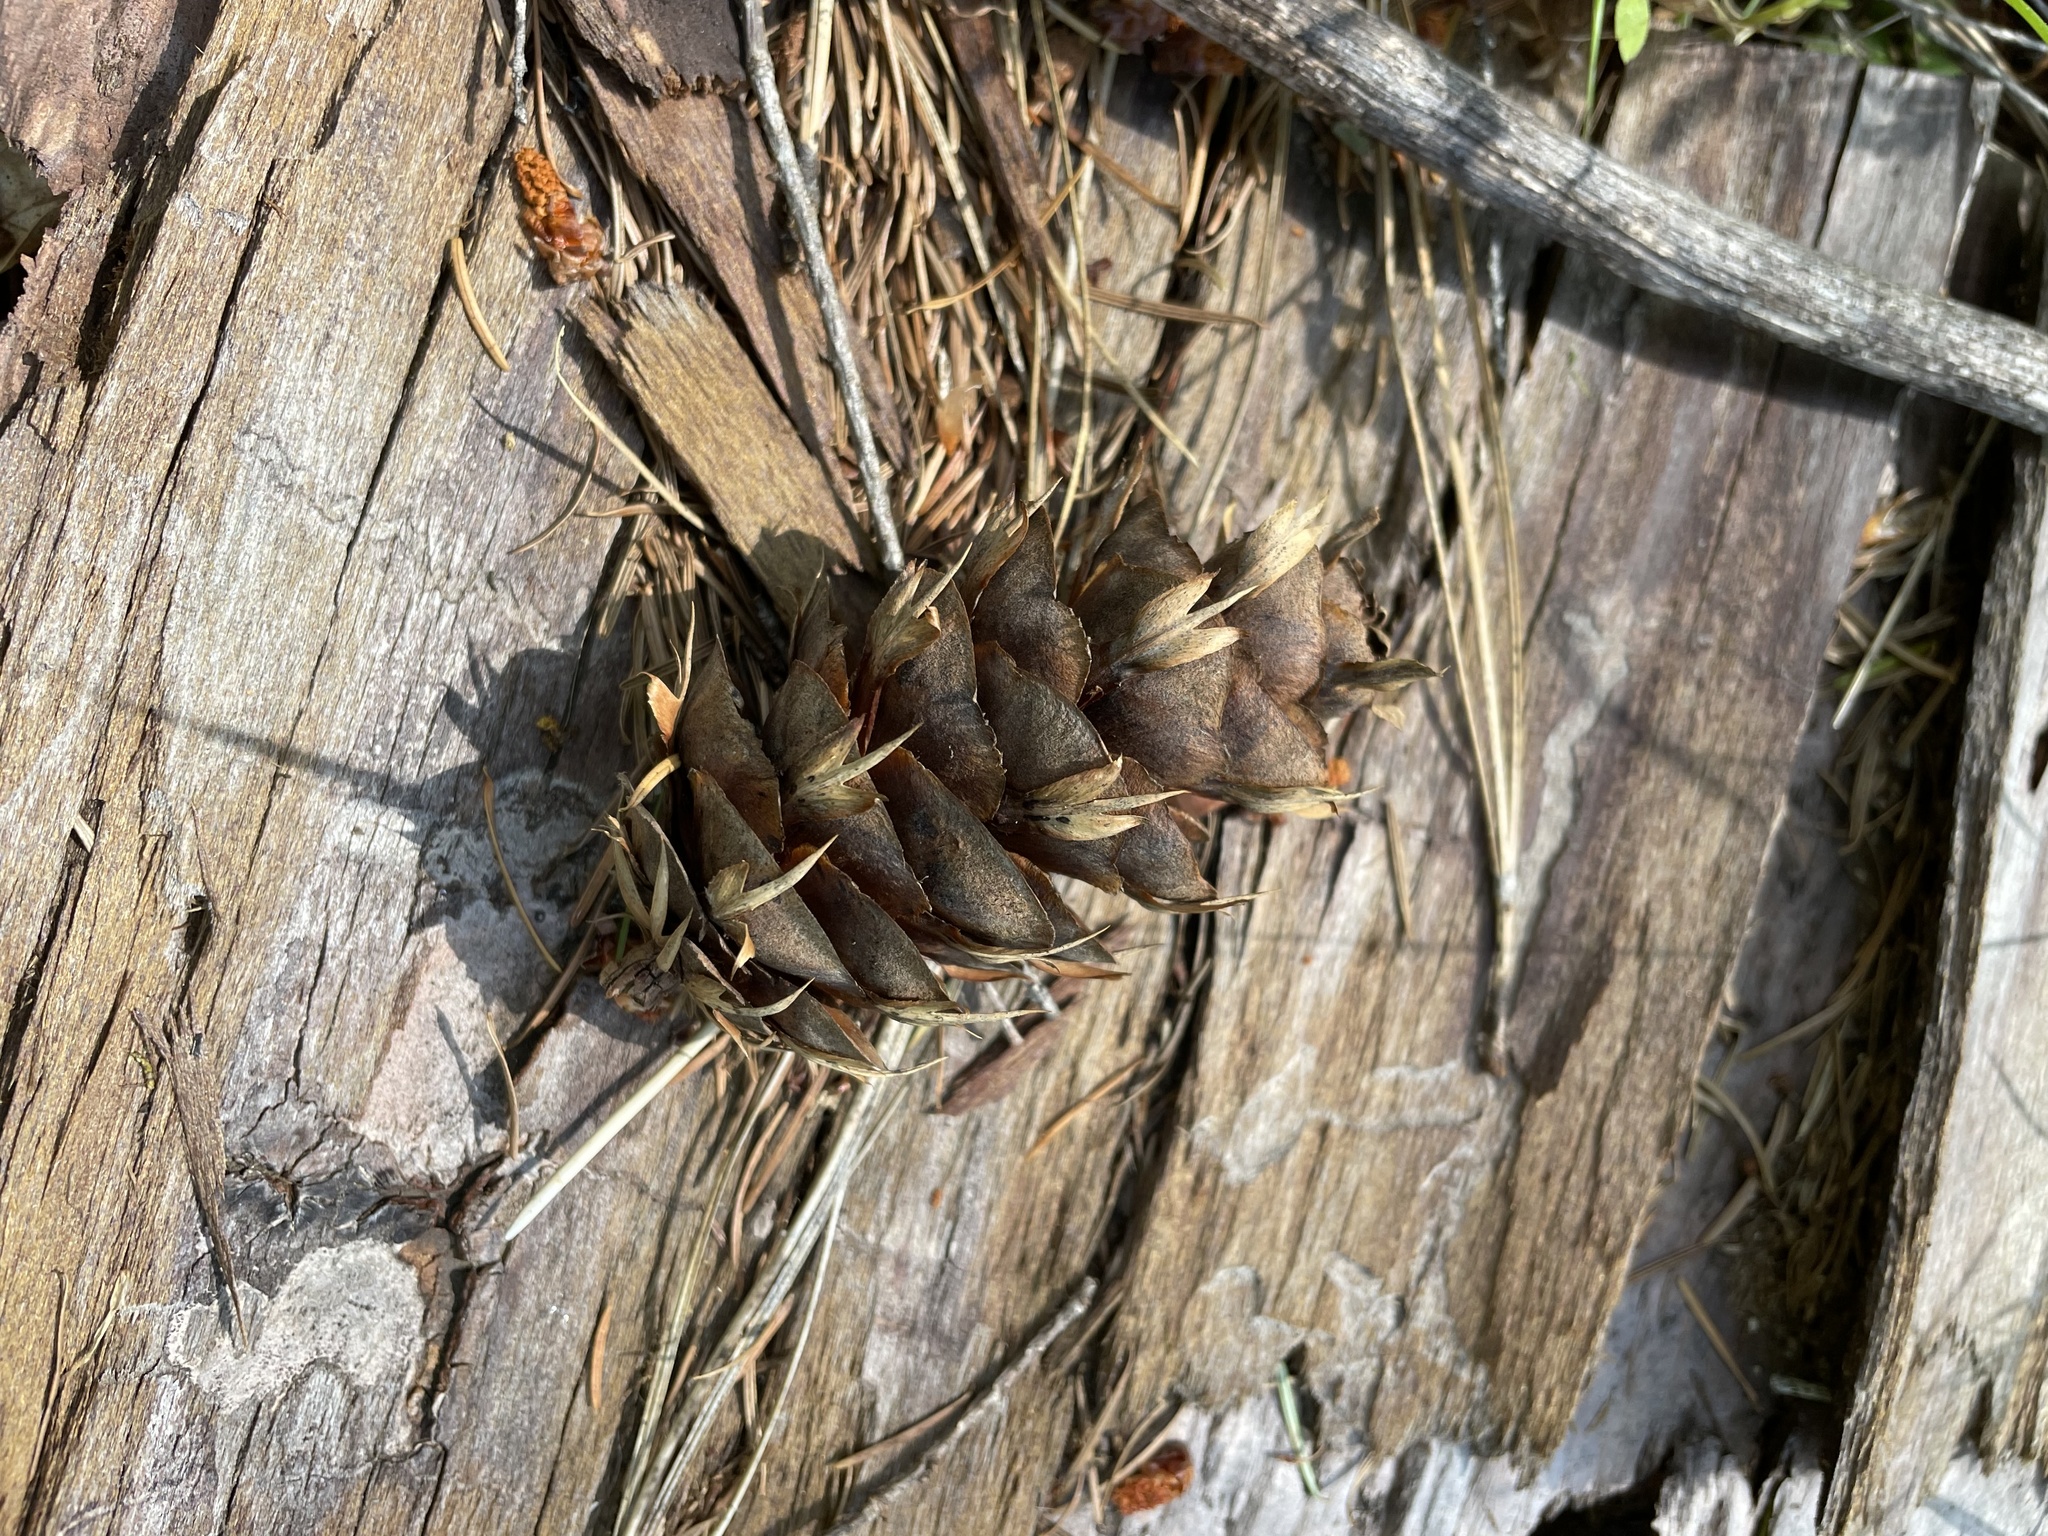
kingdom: Plantae
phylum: Tracheophyta
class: Pinopsida
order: Pinales
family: Pinaceae
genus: Pseudotsuga
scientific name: Pseudotsuga menziesii
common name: Douglas fir
